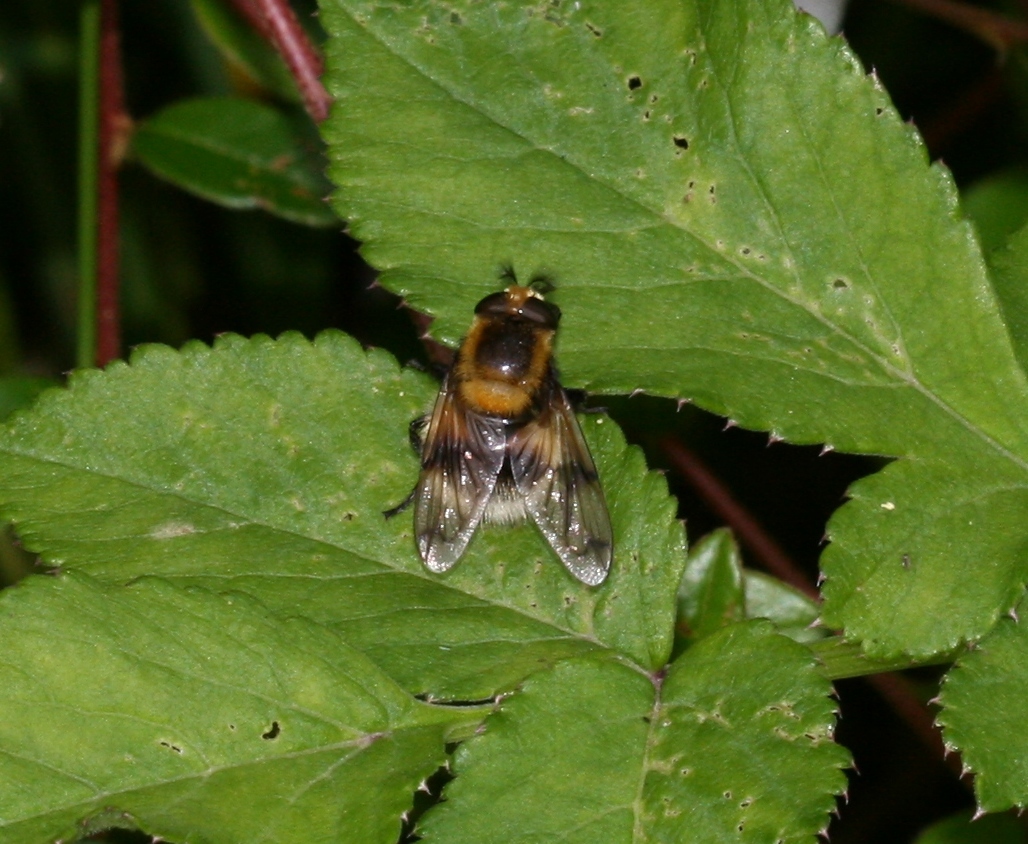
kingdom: Animalia
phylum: Arthropoda
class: Insecta
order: Diptera
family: Syrphidae
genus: Volucella
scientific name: Volucella bombylans
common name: Bumble bee hover fly
